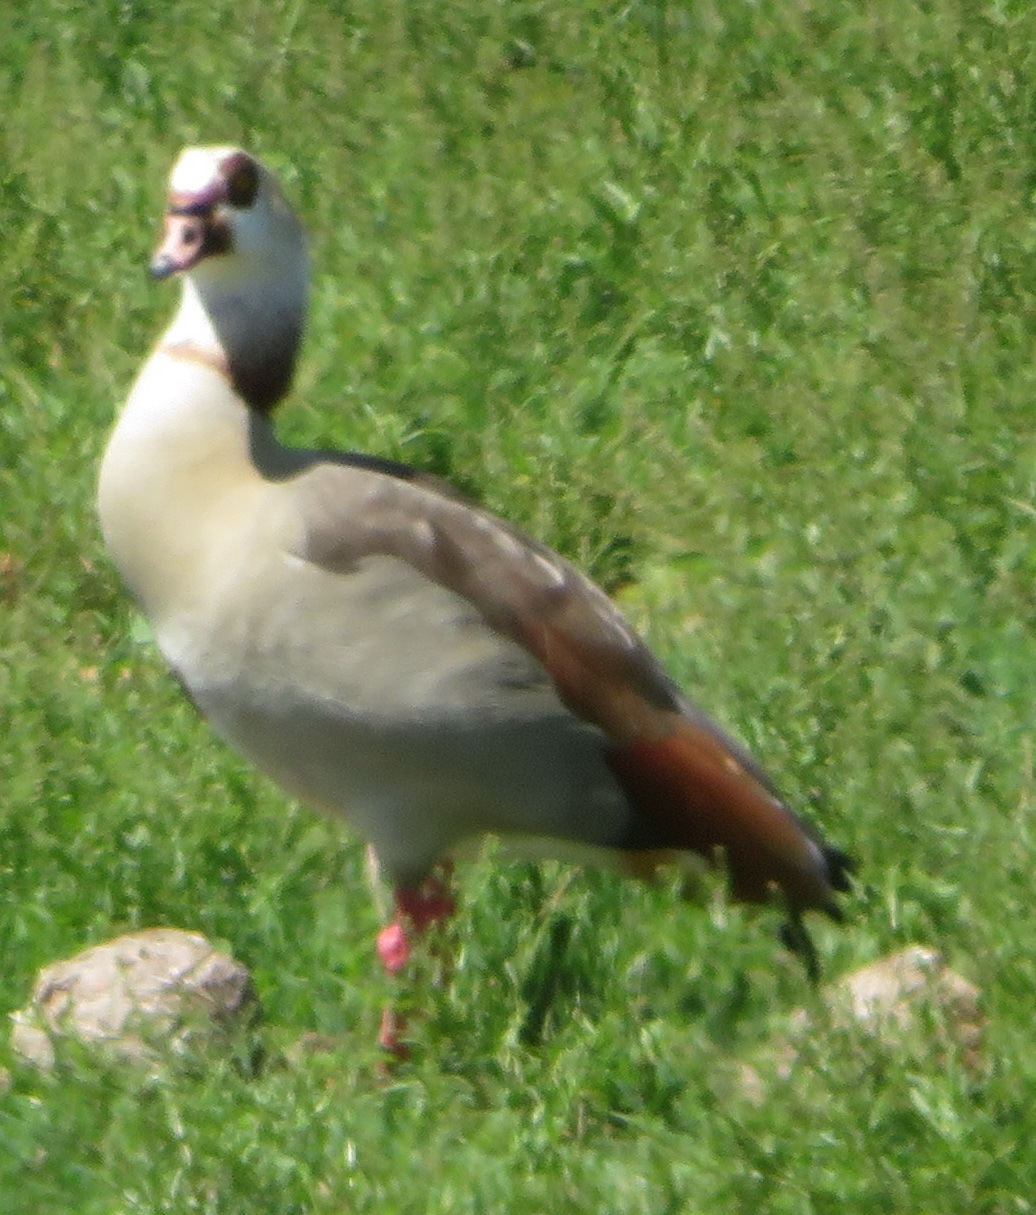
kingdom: Animalia
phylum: Chordata
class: Aves
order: Anseriformes
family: Anatidae
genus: Alopochen
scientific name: Alopochen aegyptiaca
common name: Egyptian goose
